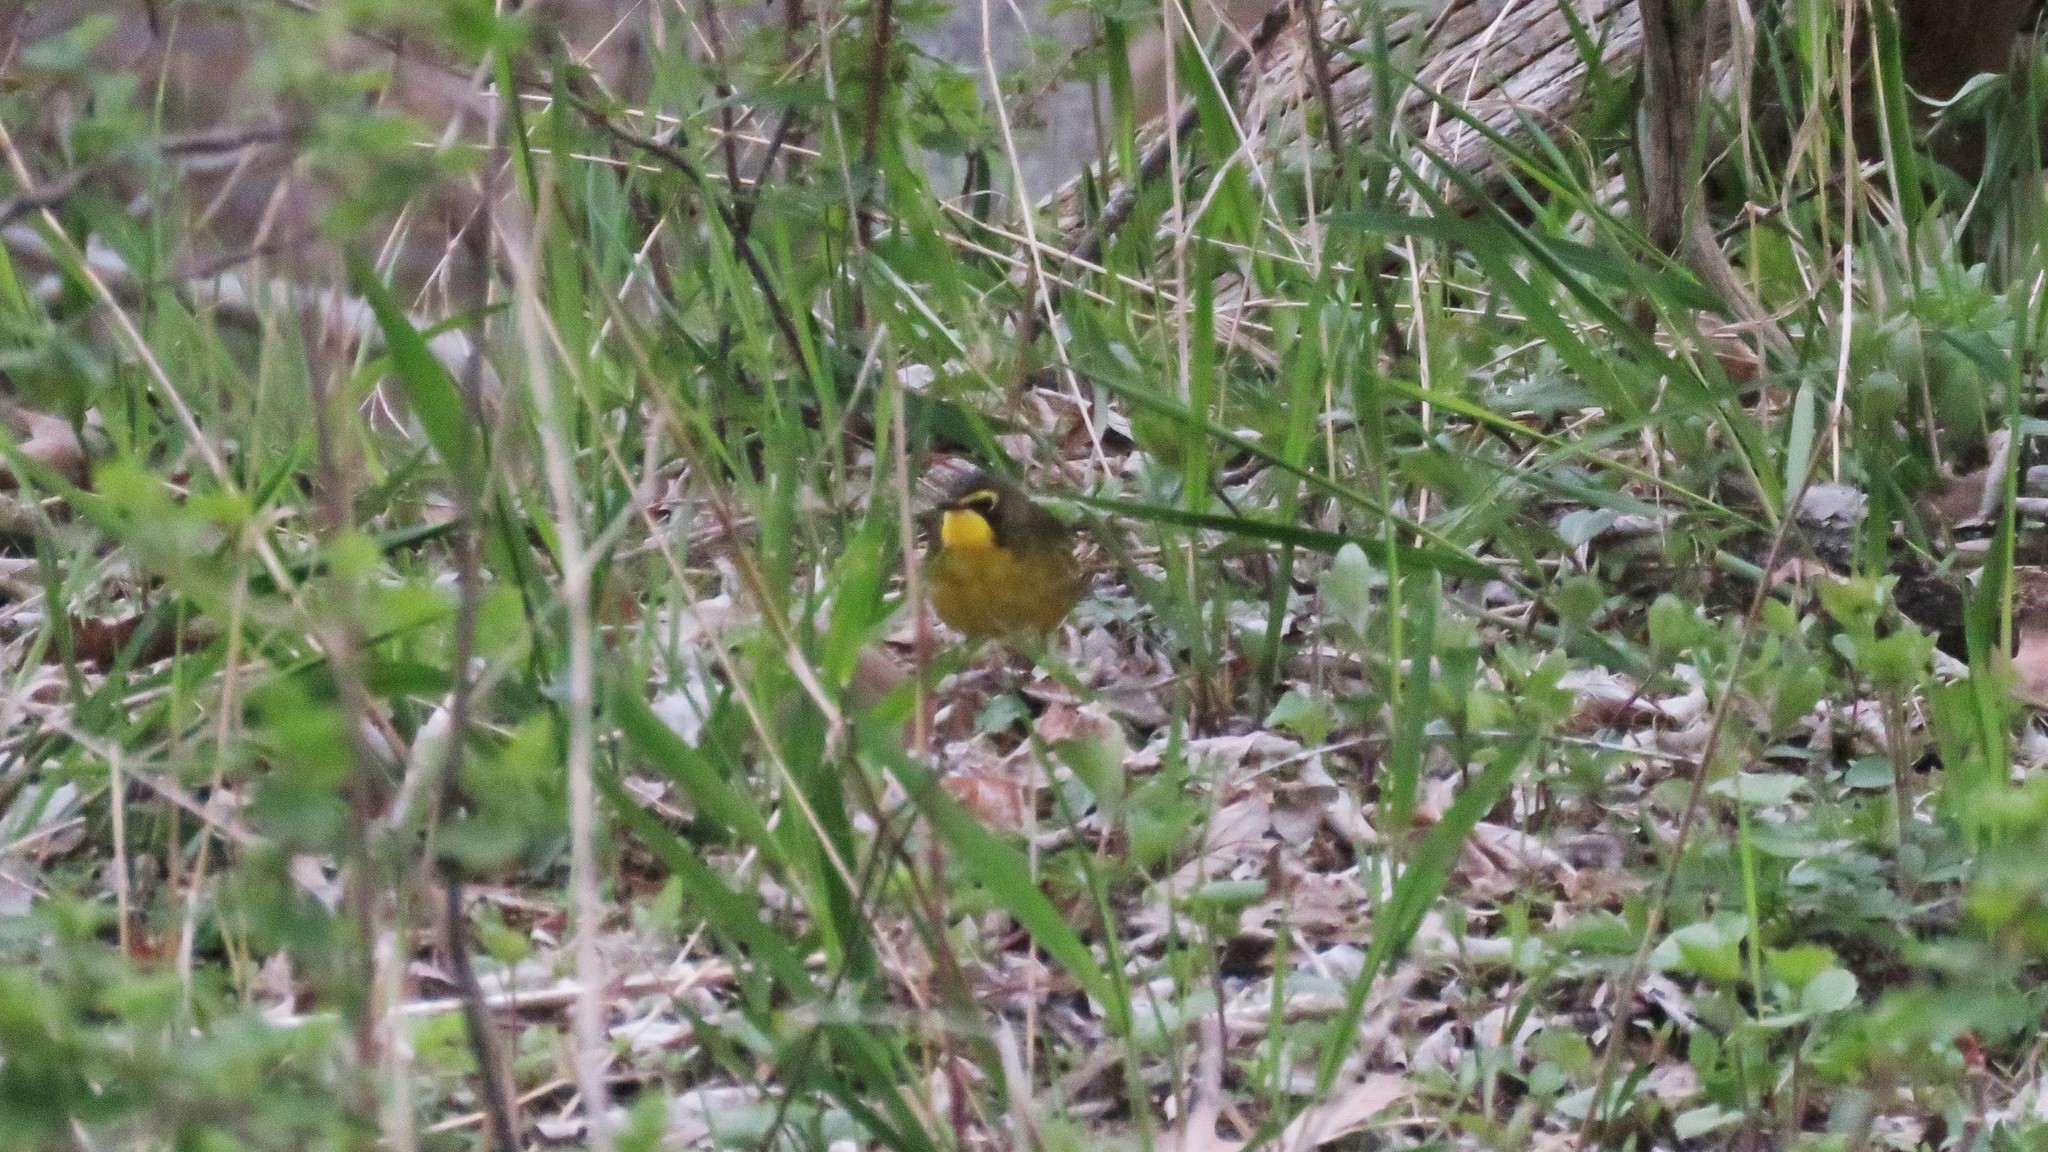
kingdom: Animalia
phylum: Chordata
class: Aves
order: Passeriformes
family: Parulidae
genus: Geothlypis
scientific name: Geothlypis formosa
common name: Kentucky warbler
